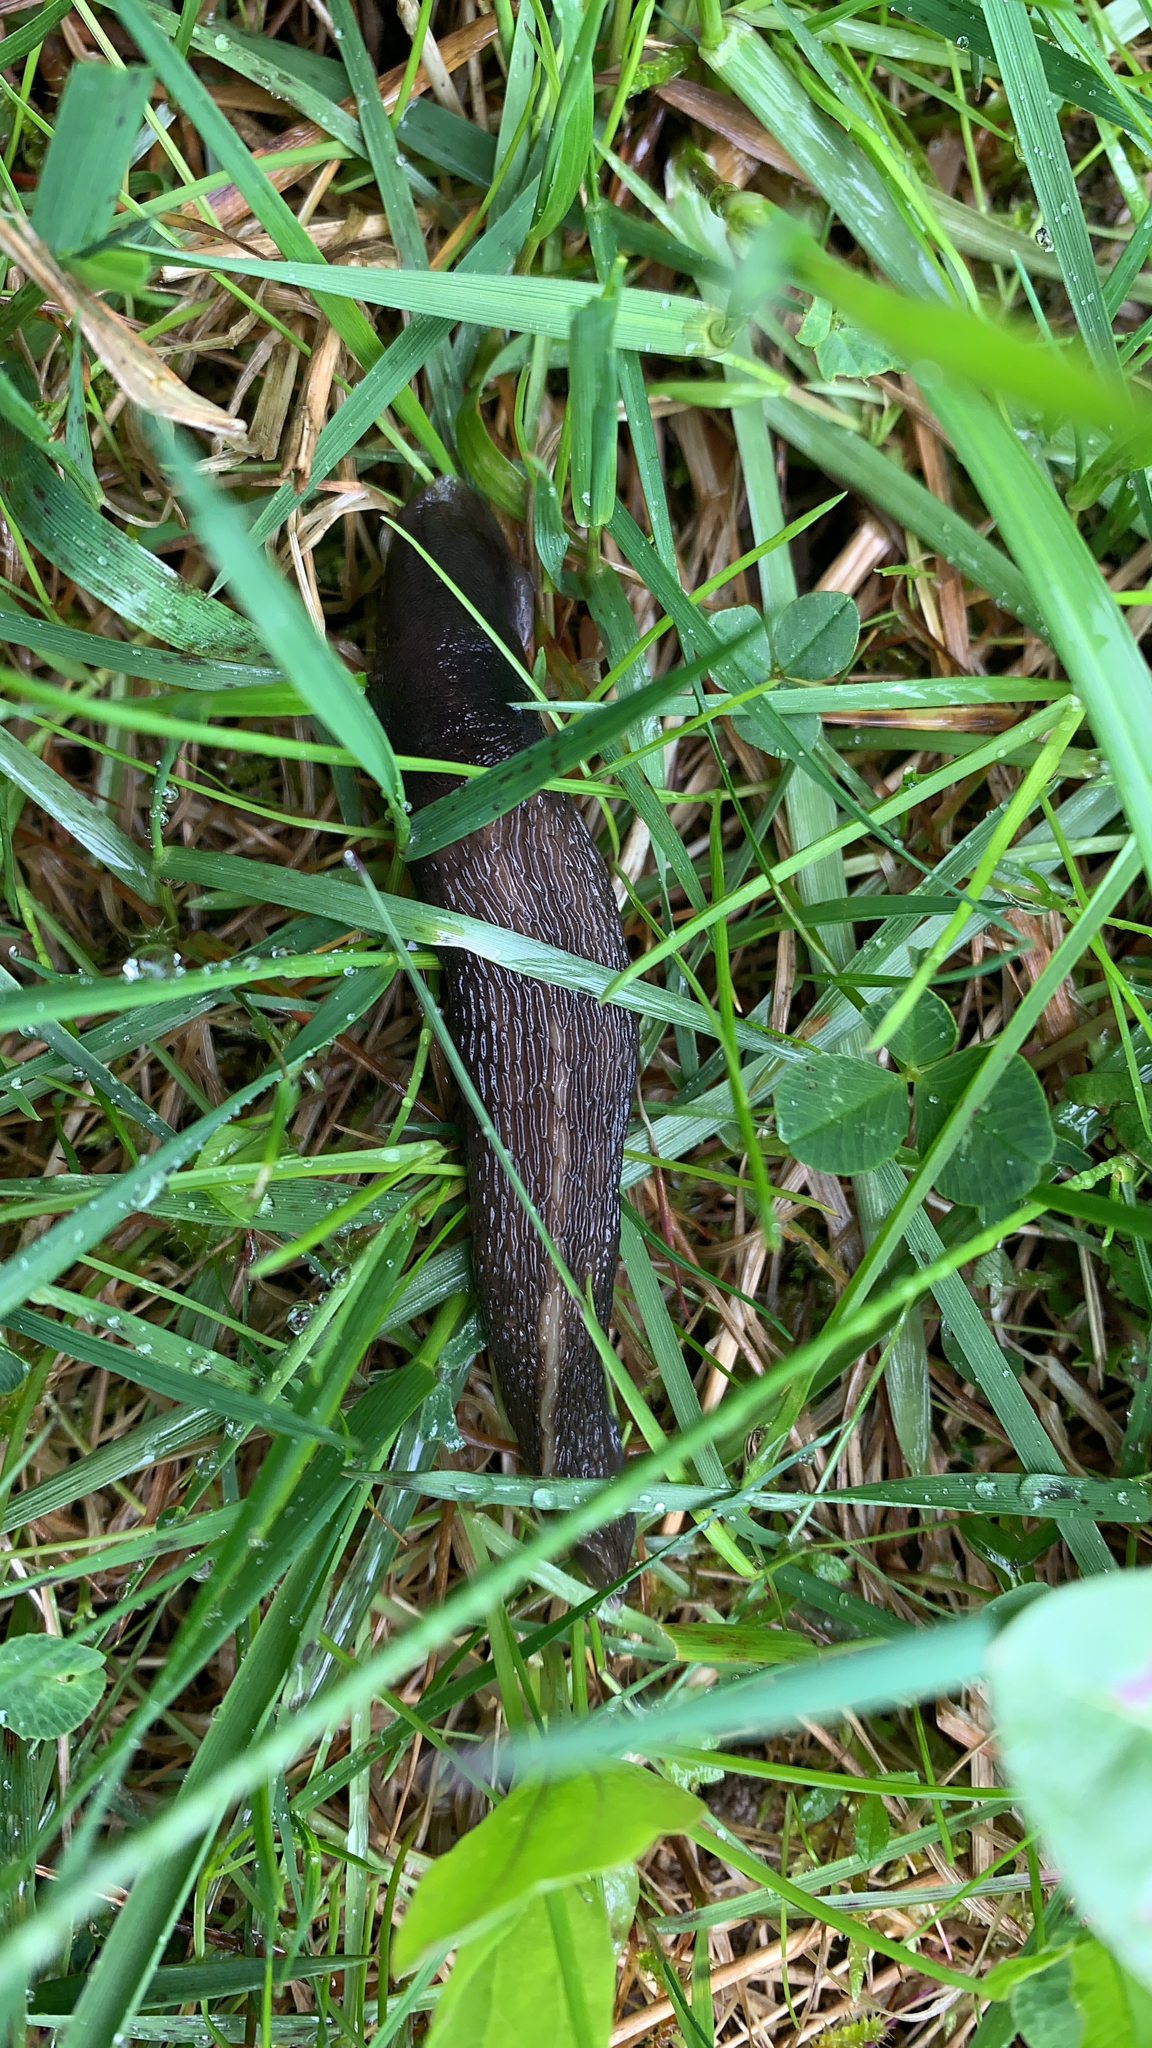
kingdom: Animalia
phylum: Mollusca
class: Gastropoda
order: Stylommatophora
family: Limacidae
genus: Limax
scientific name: Limax cinereoniger
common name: Ash-black slug
